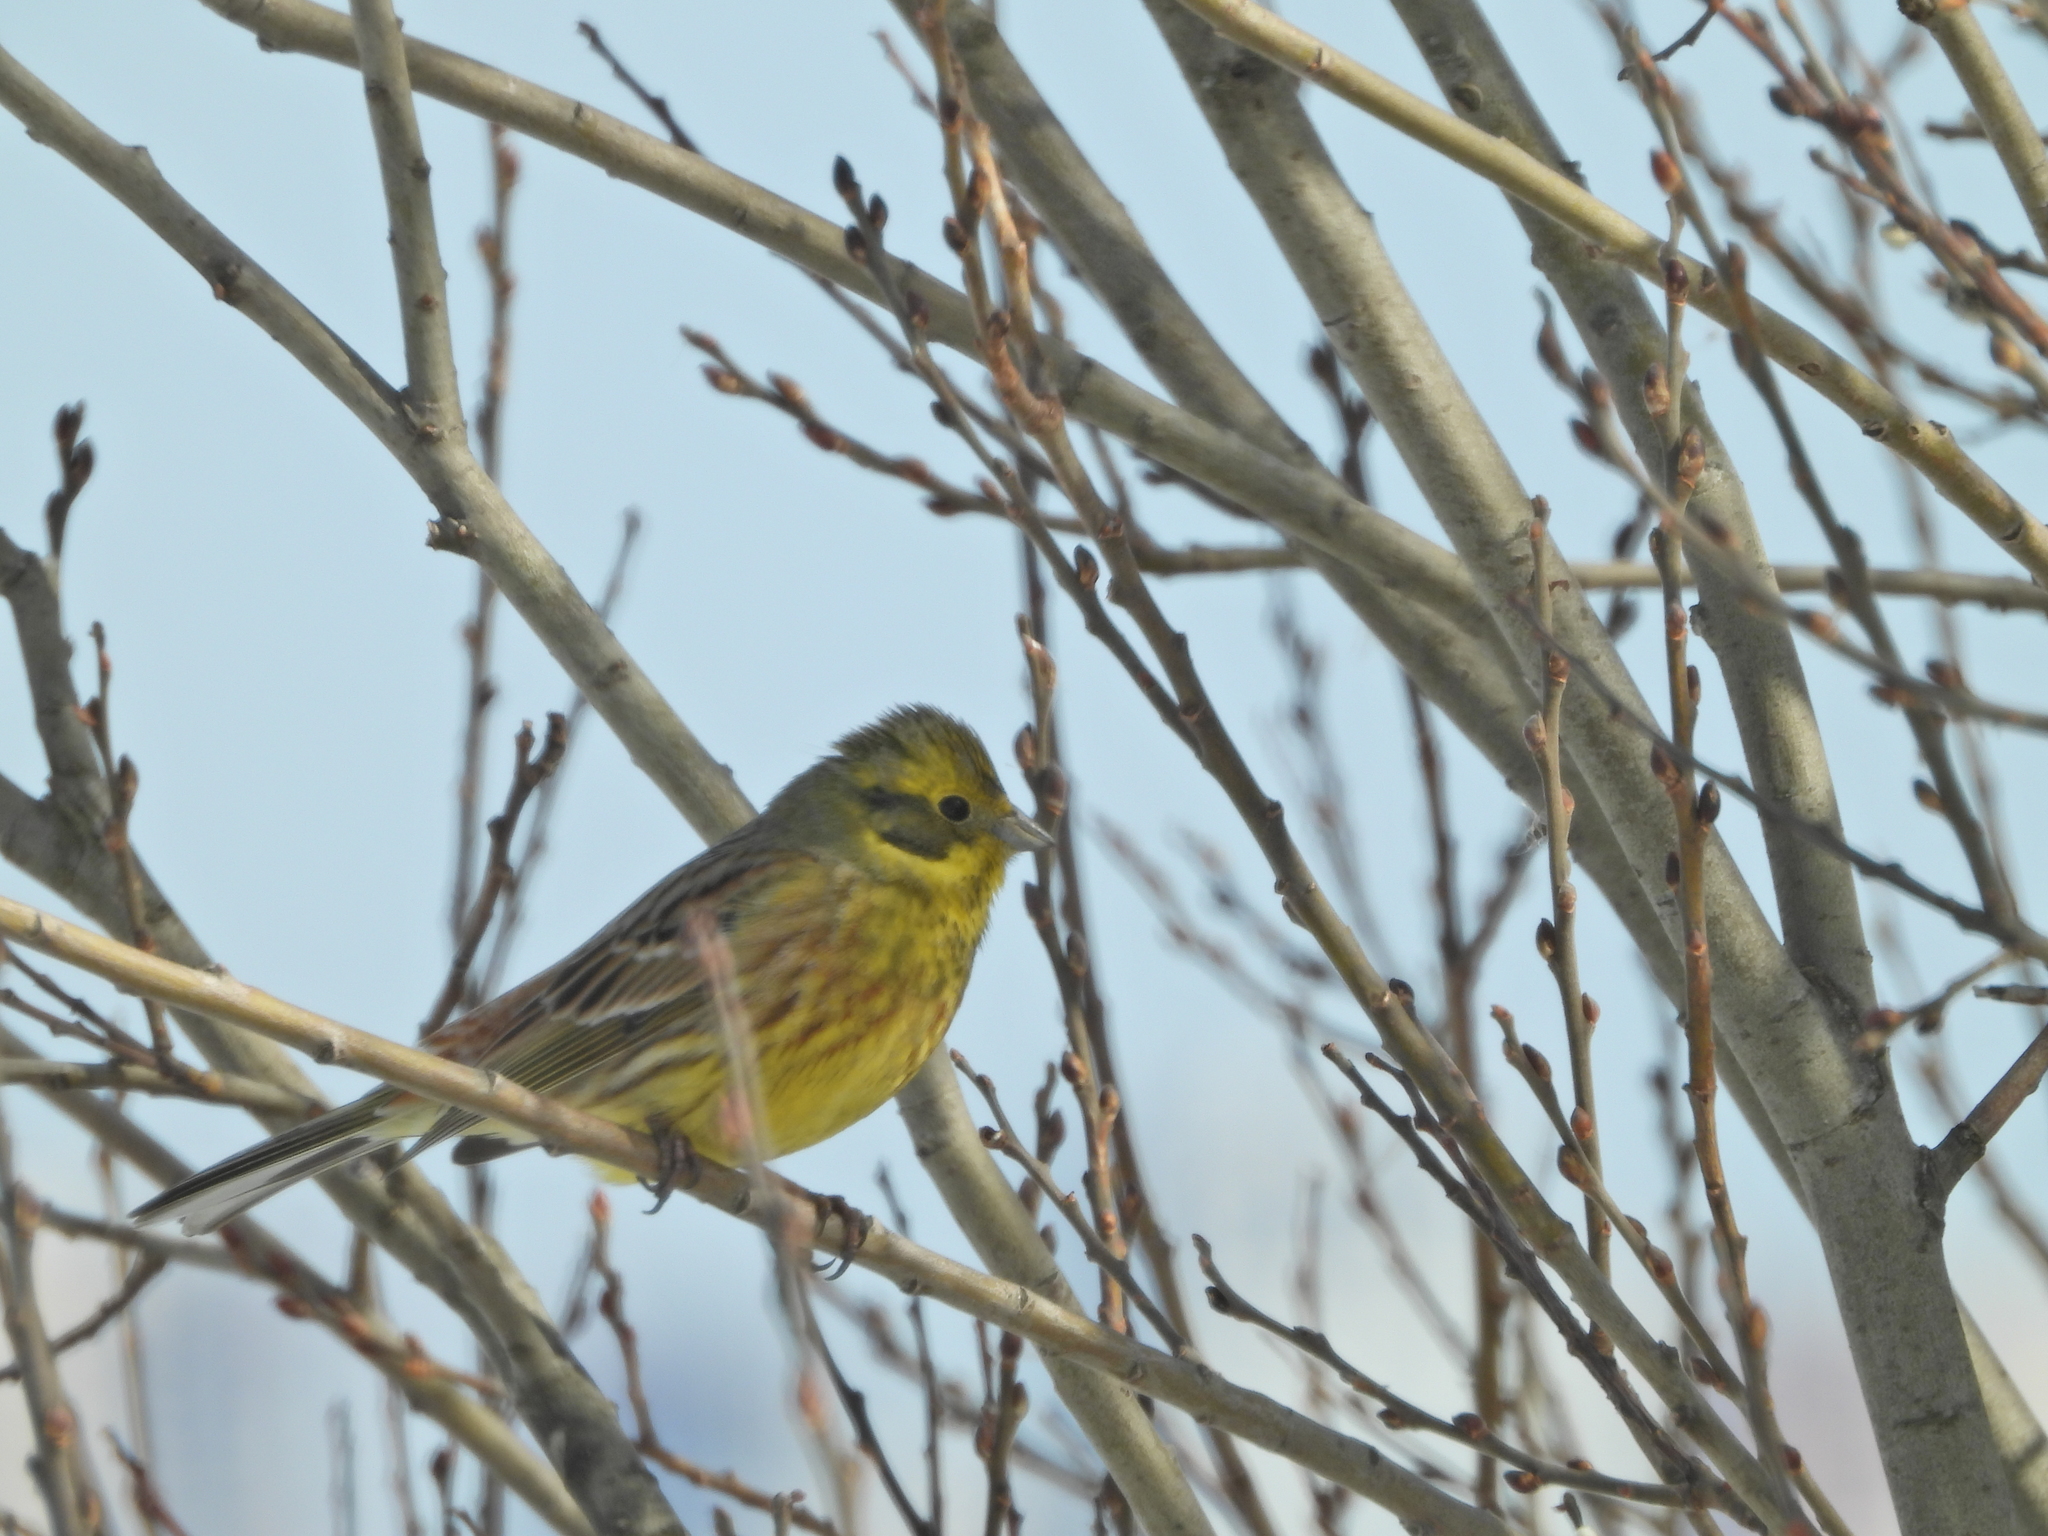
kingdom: Animalia
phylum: Chordata
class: Aves
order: Passeriformes
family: Emberizidae
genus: Emberiza
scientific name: Emberiza citrinella
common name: Yellowhammer
